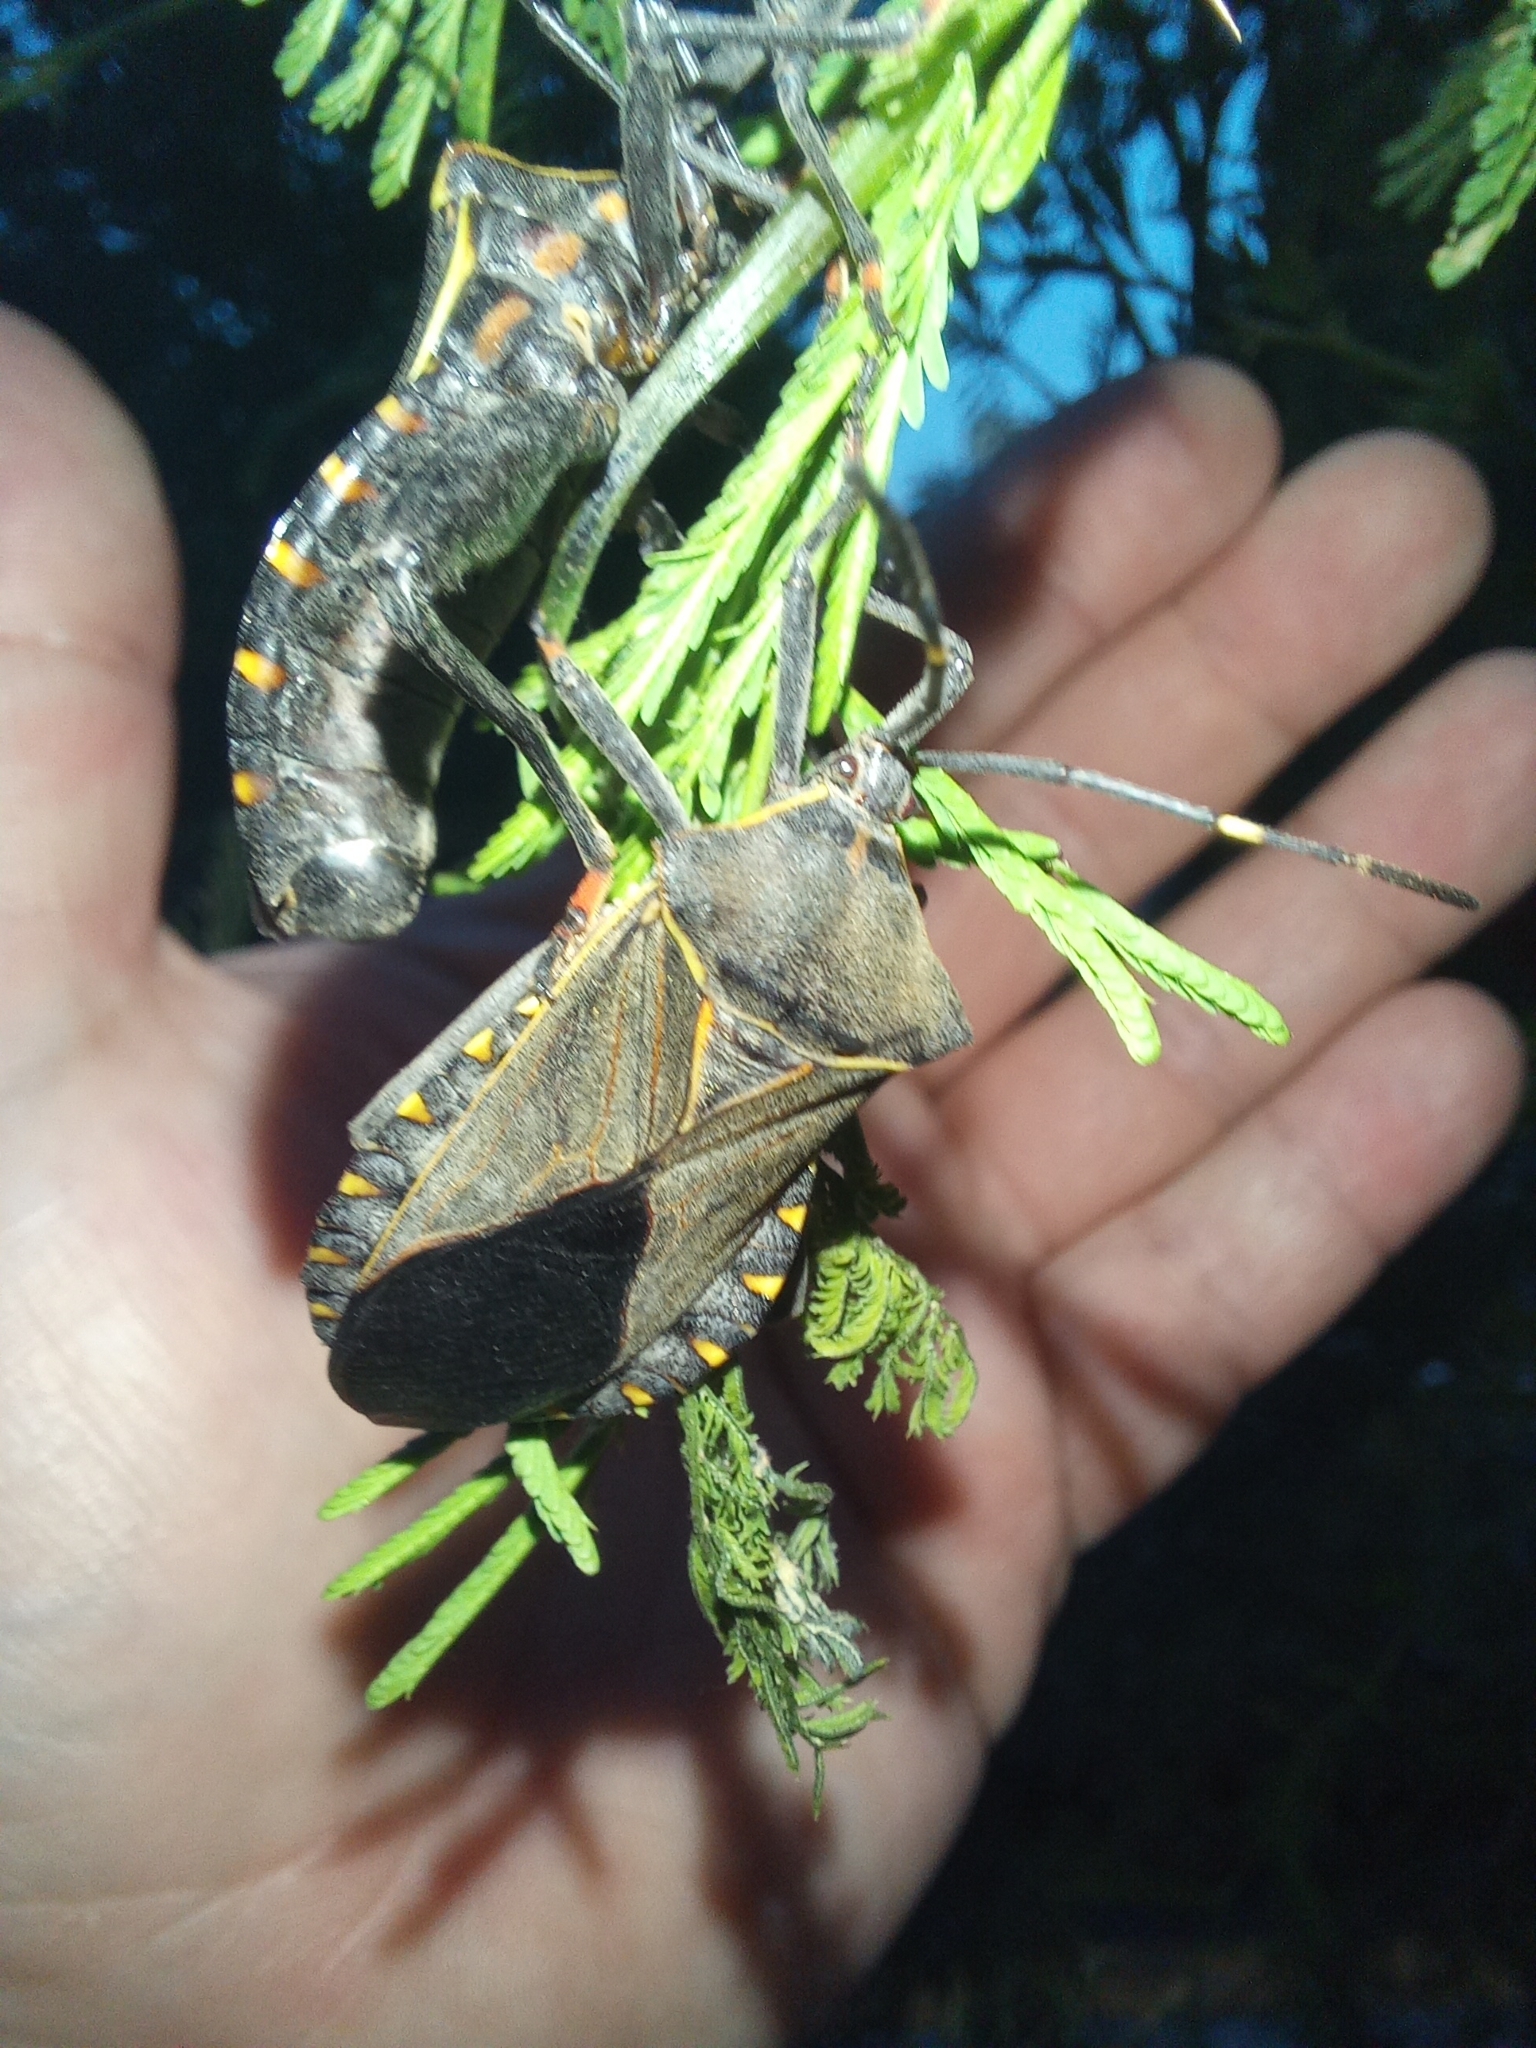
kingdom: Animalia
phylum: Arthropoda
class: Insecta
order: Hemiptera
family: Coreidae
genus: Pachylis
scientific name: Pachylis argentinus
